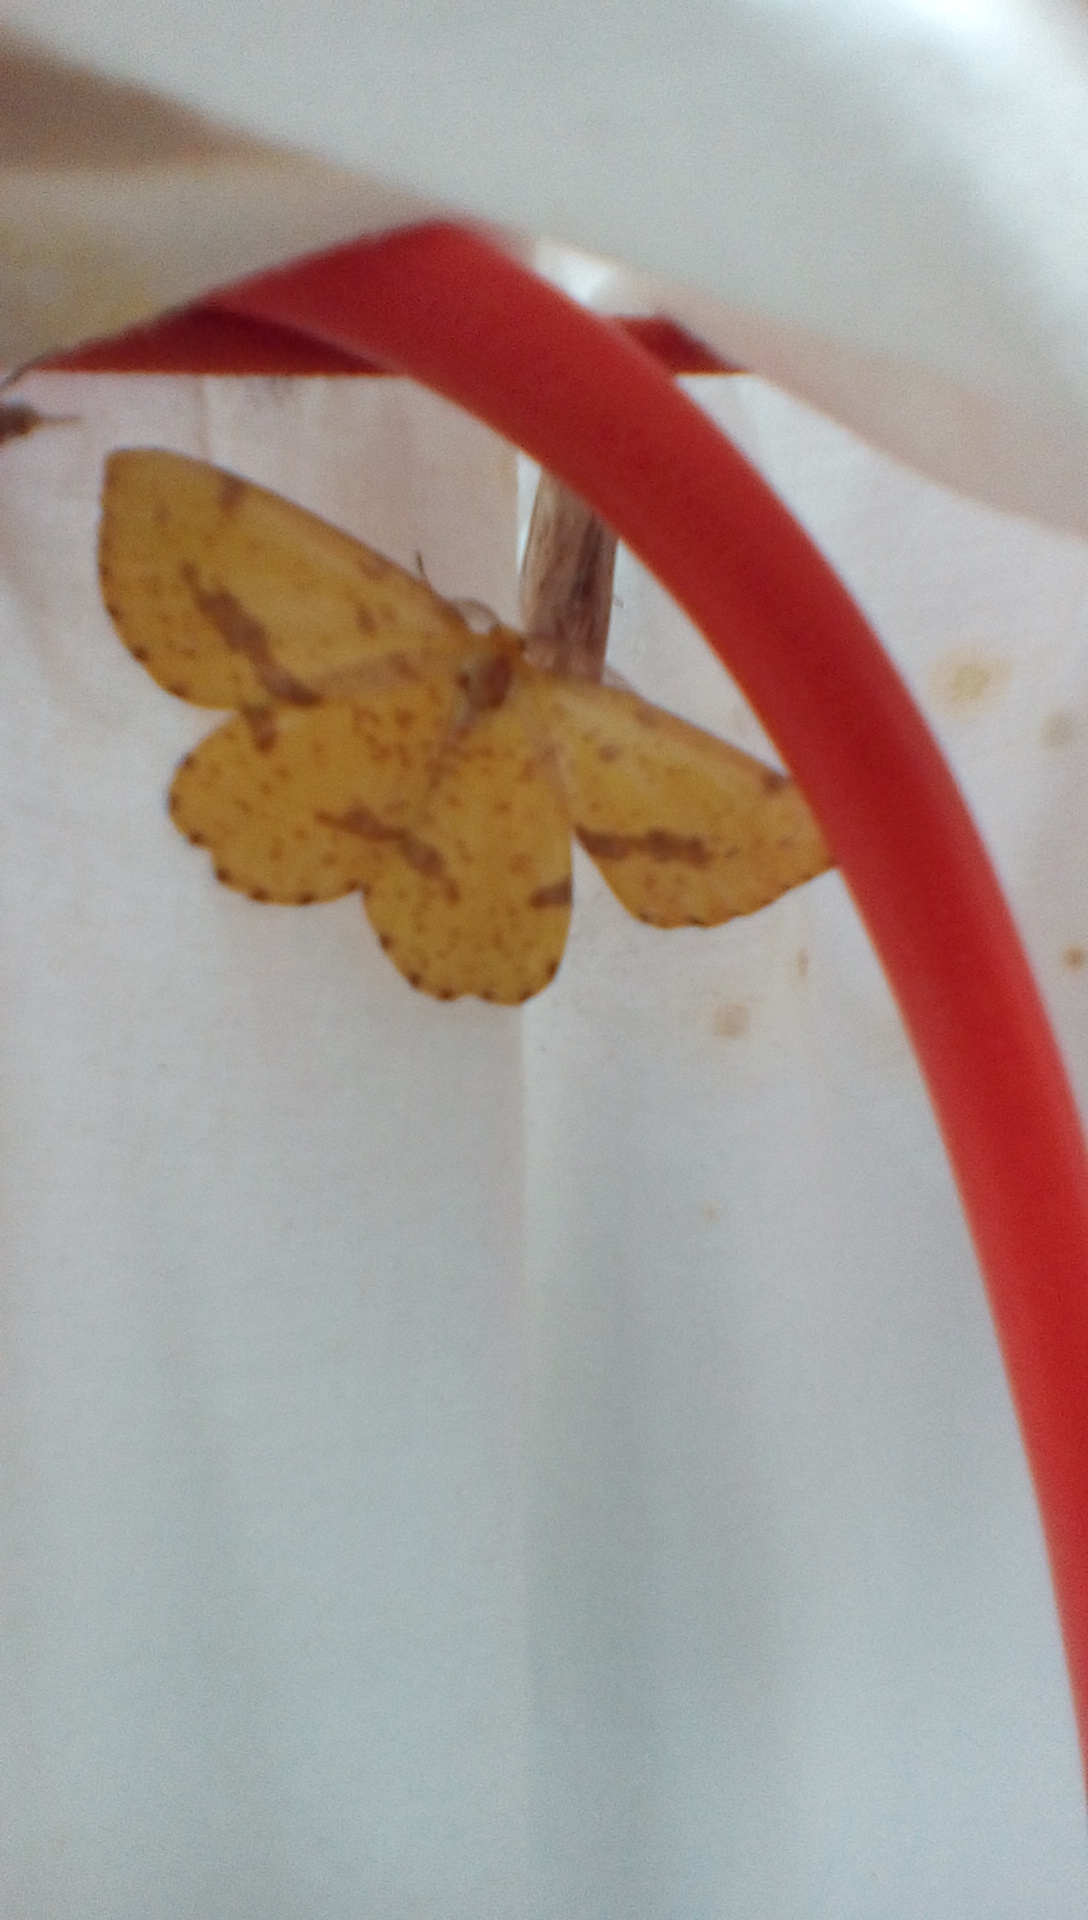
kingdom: Animalia
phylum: Arthropoda
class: Insecta
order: Lepidoptera
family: Geometridae
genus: Xanthotype
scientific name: Xanthotype
